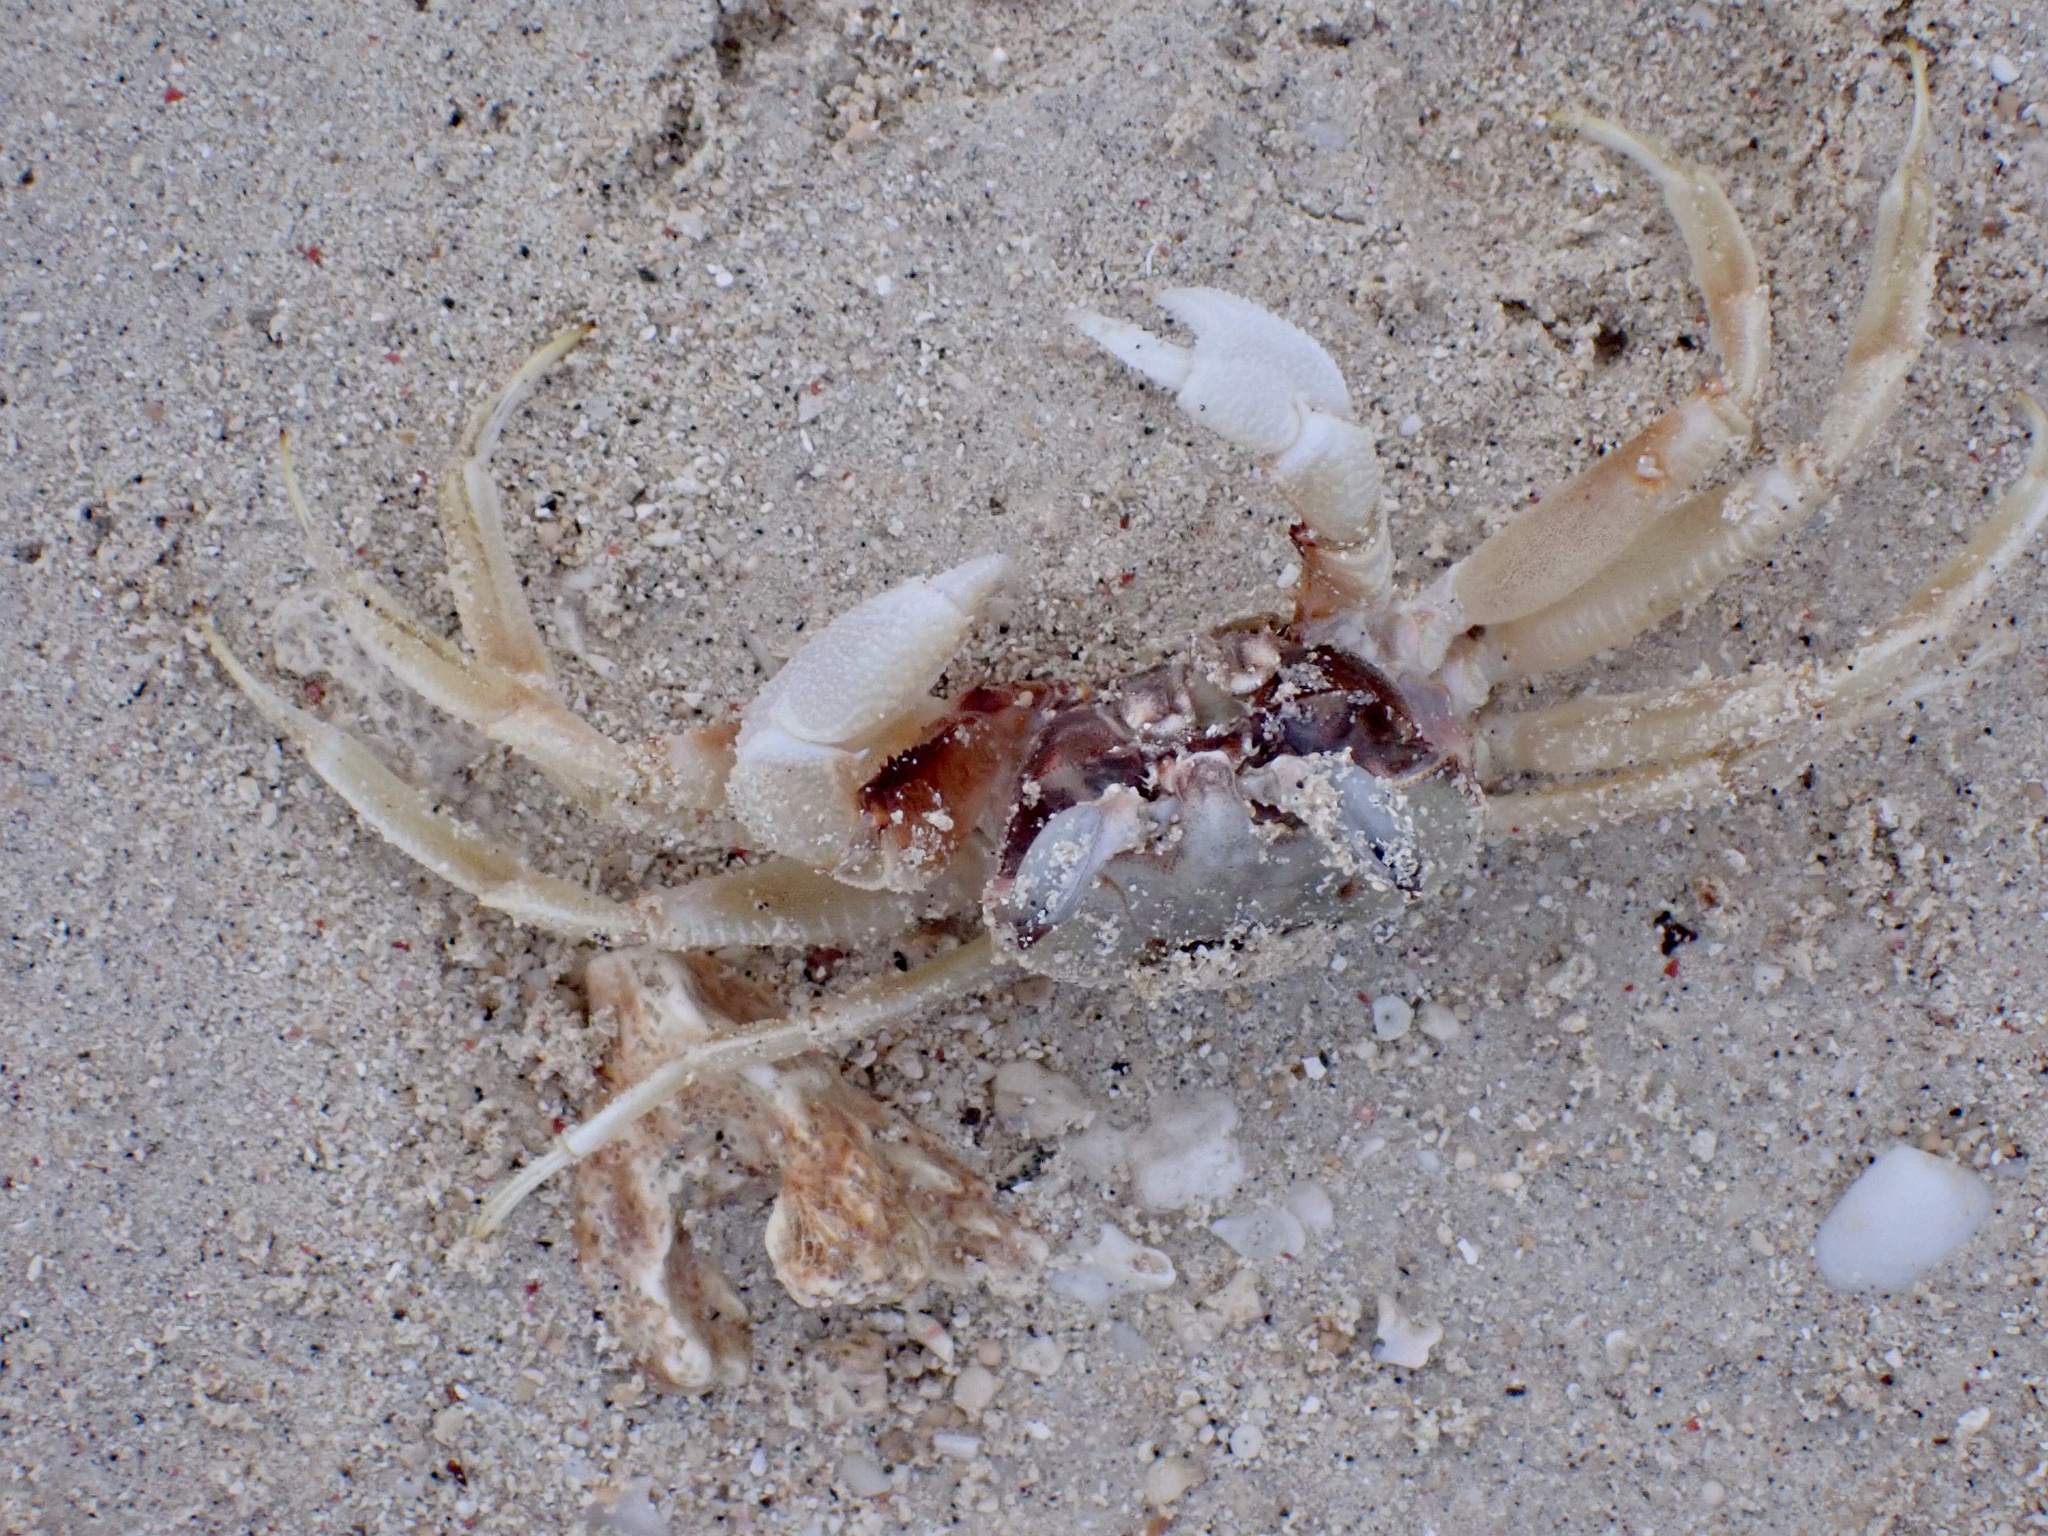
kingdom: Animalia
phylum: Arthropoda
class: Malacostraca
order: Decapoda
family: Ocypodidae
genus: Ocypode
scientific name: Ocypode ceratophthalmus
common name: Indo-pacific ghost crab
